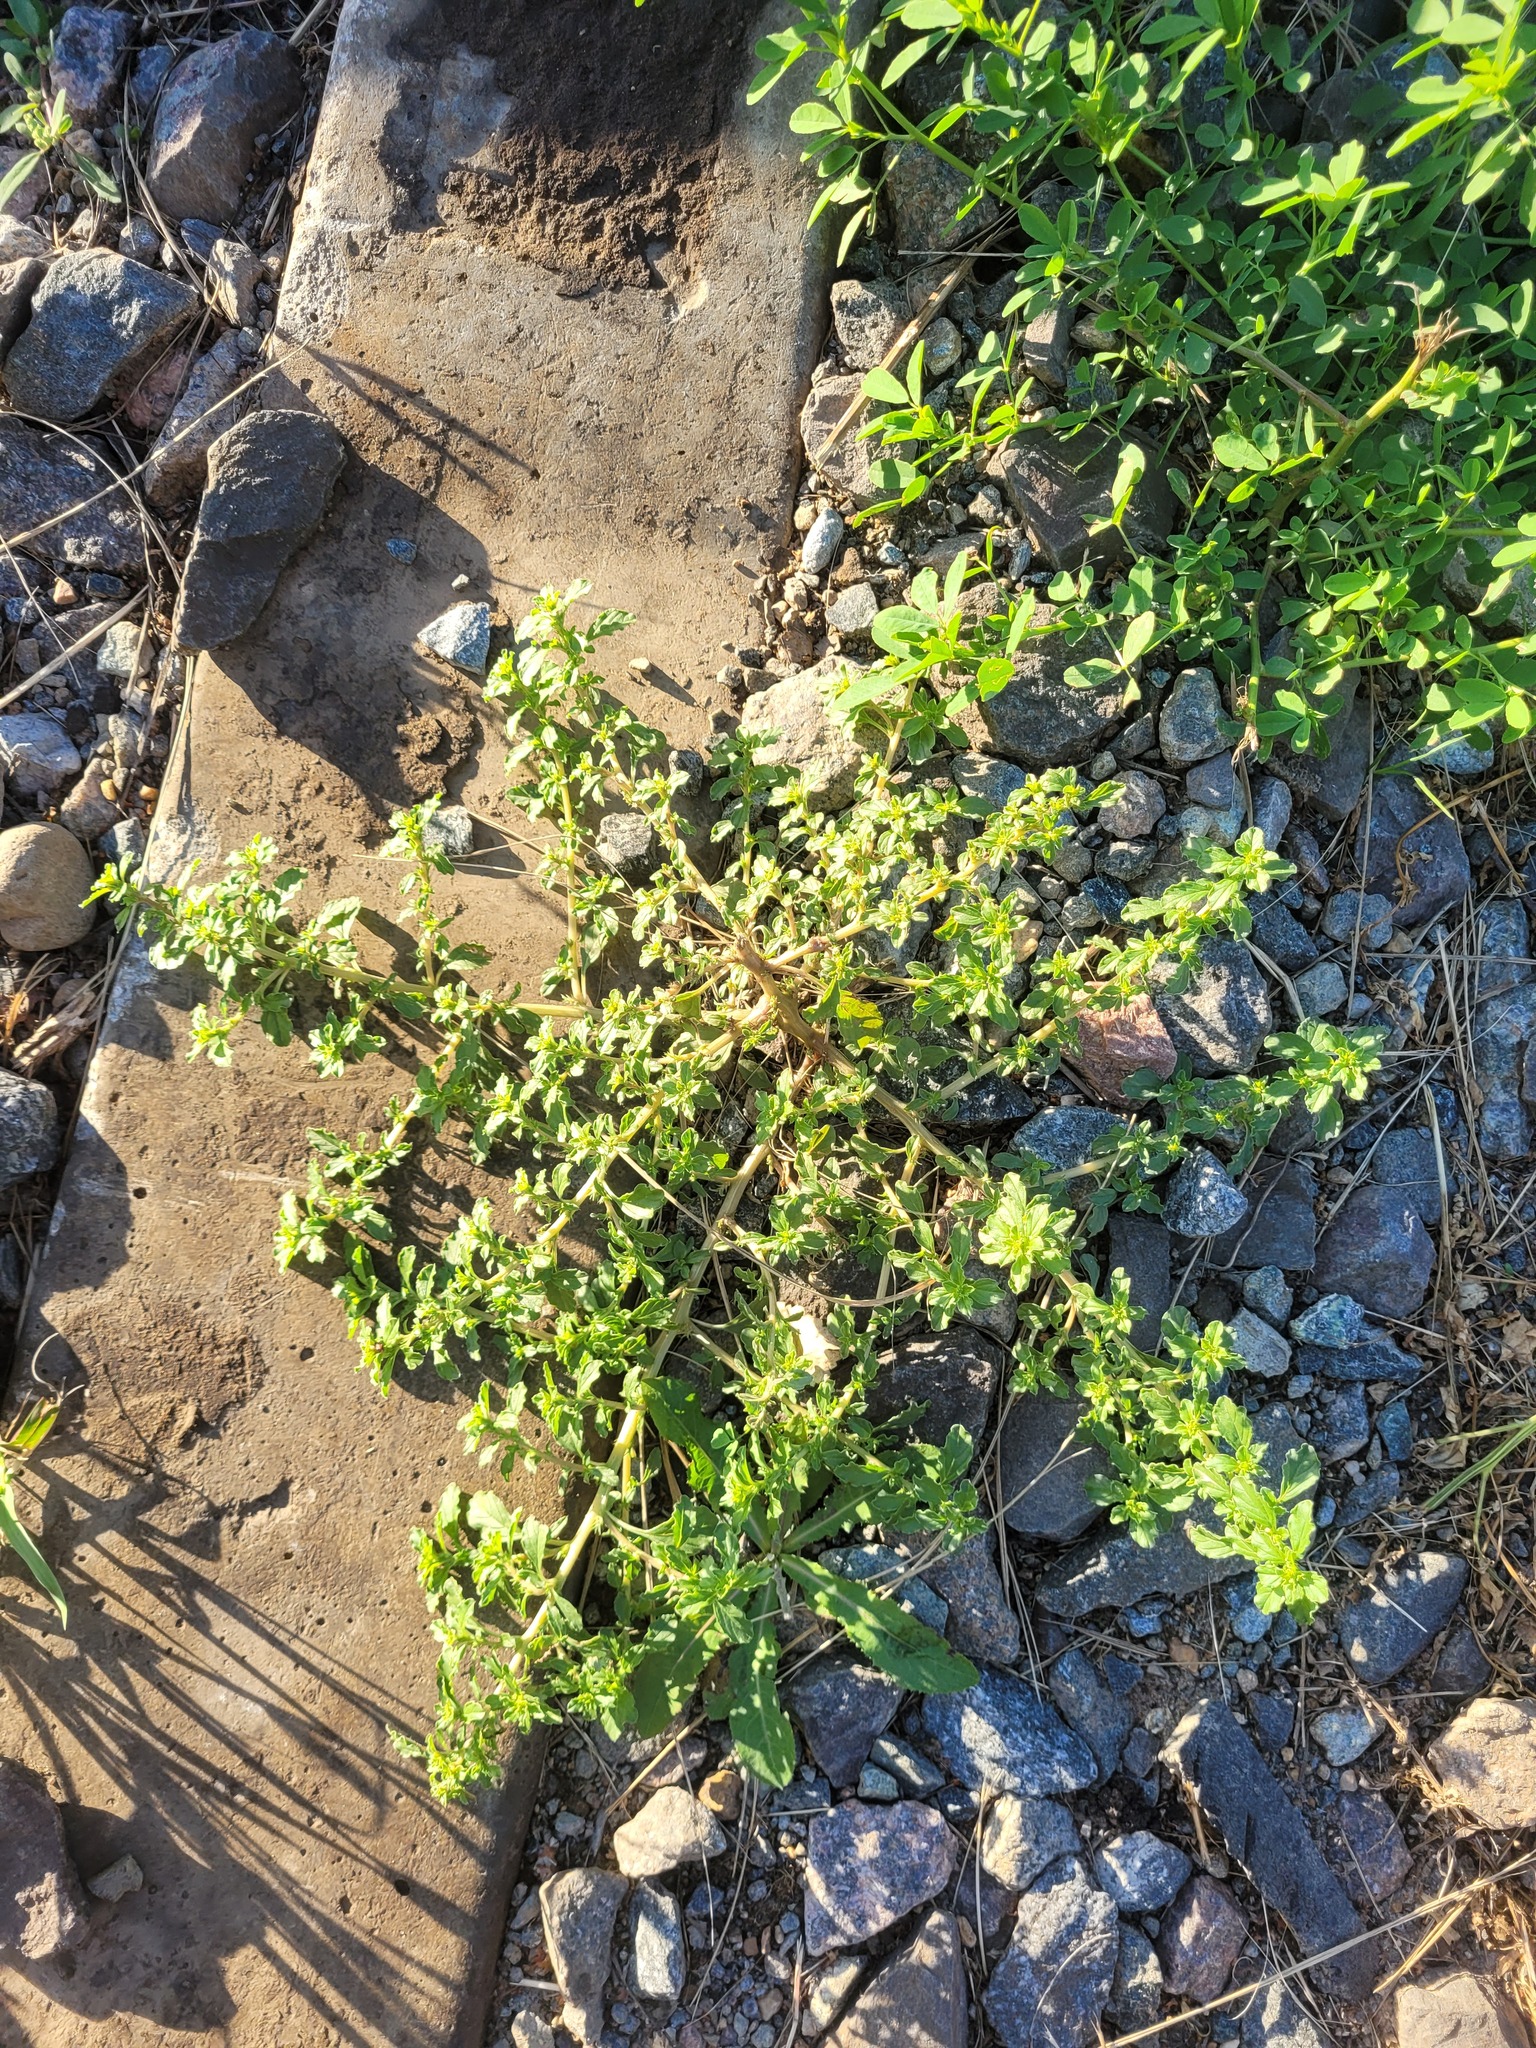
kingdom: Plantae
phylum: Tracheophyta
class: Magnoliopsida
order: Caryophyllales
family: Amaranthaceae
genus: Amaranthus
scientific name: Amaranthus albus
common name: White pigweed
